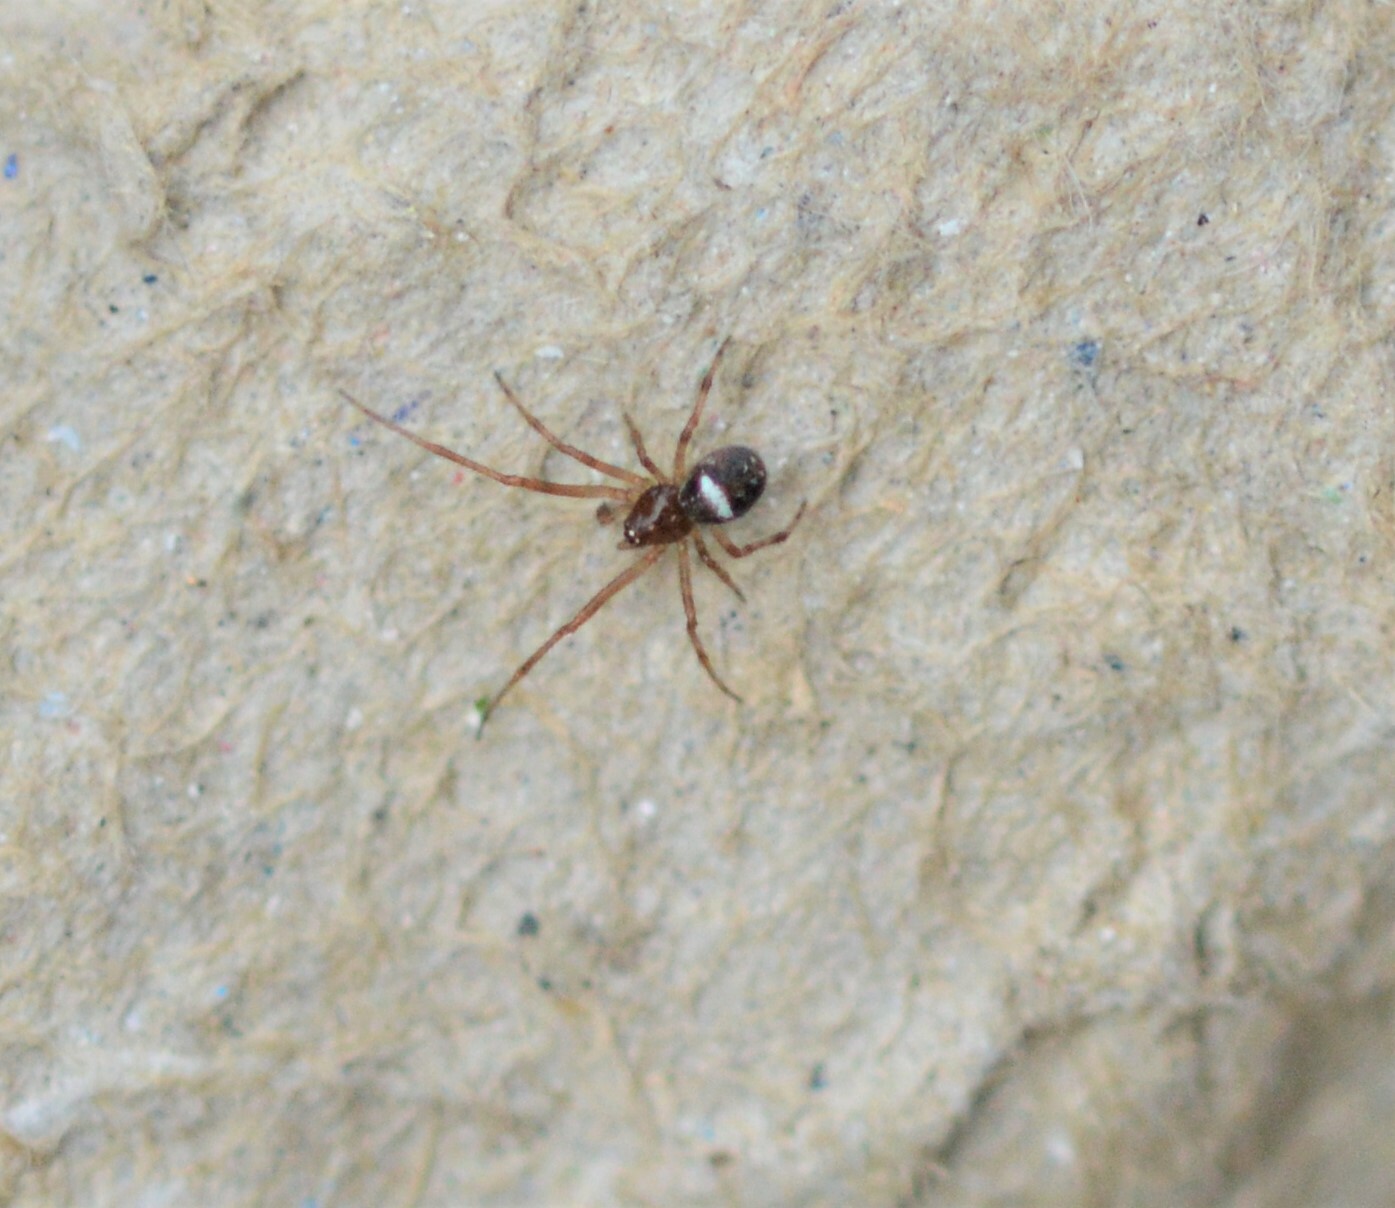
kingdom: Animalia
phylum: Arthropoda
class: Arachnida
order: Araneae
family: Theridiidae
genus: Simitidion
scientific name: Simitidion simile
